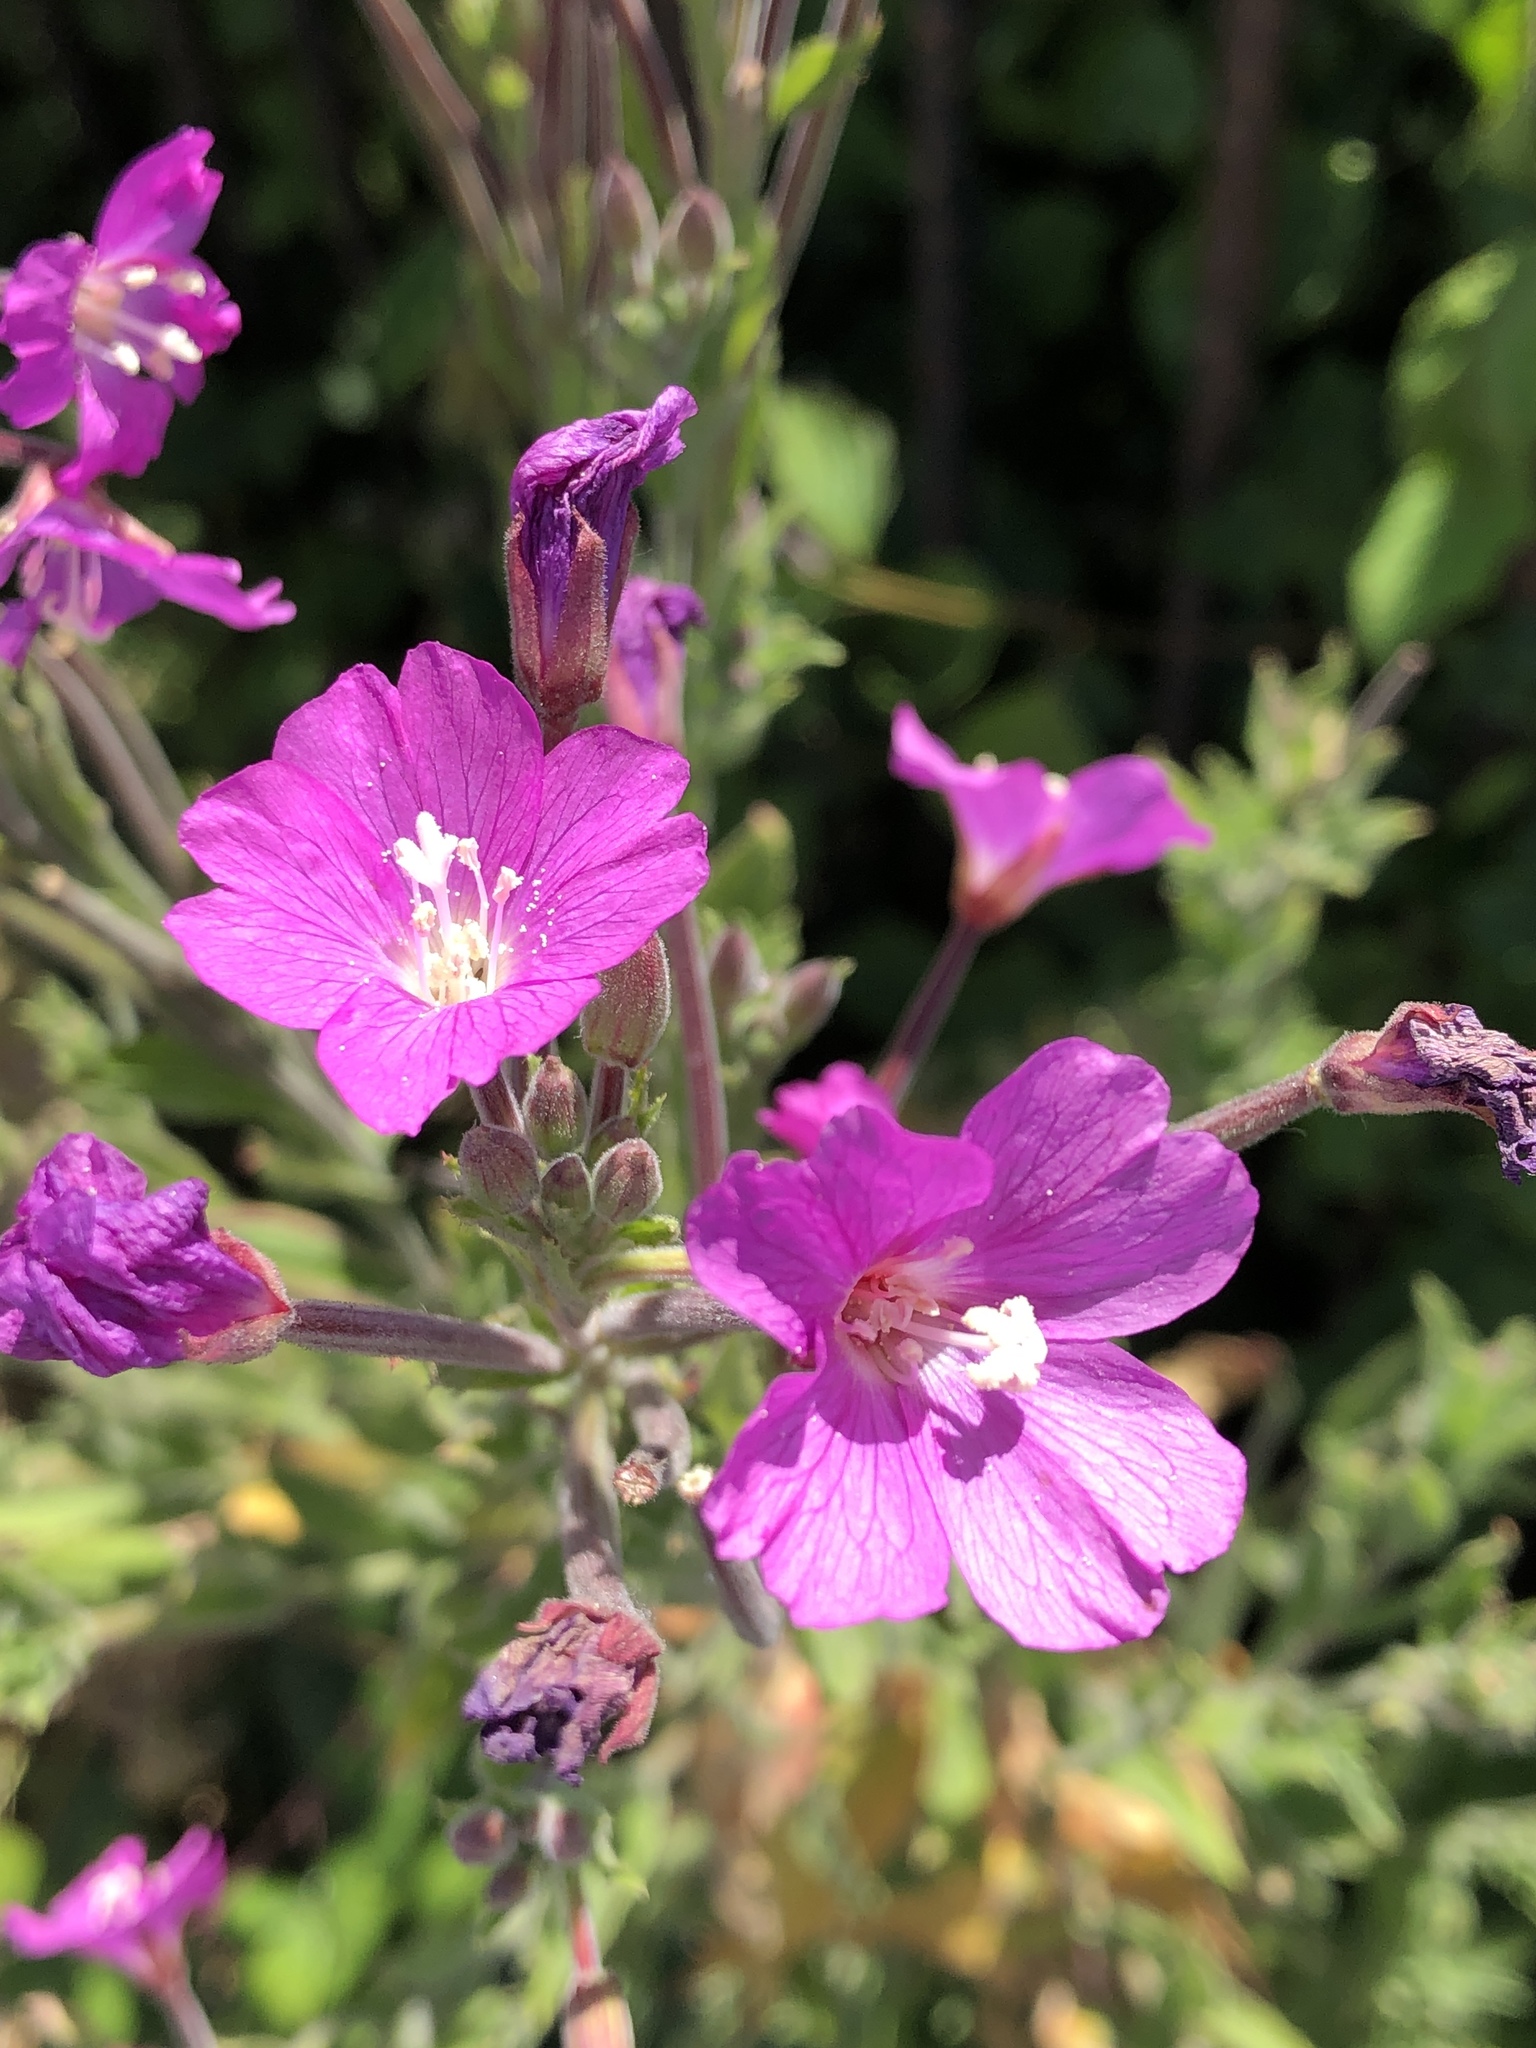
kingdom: Plantae
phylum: Tracheophyta
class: Magnoliopsida
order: Myrtales
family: Onagraceae
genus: Epilobium
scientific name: Epilobium hirsutum
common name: Great willowherb
